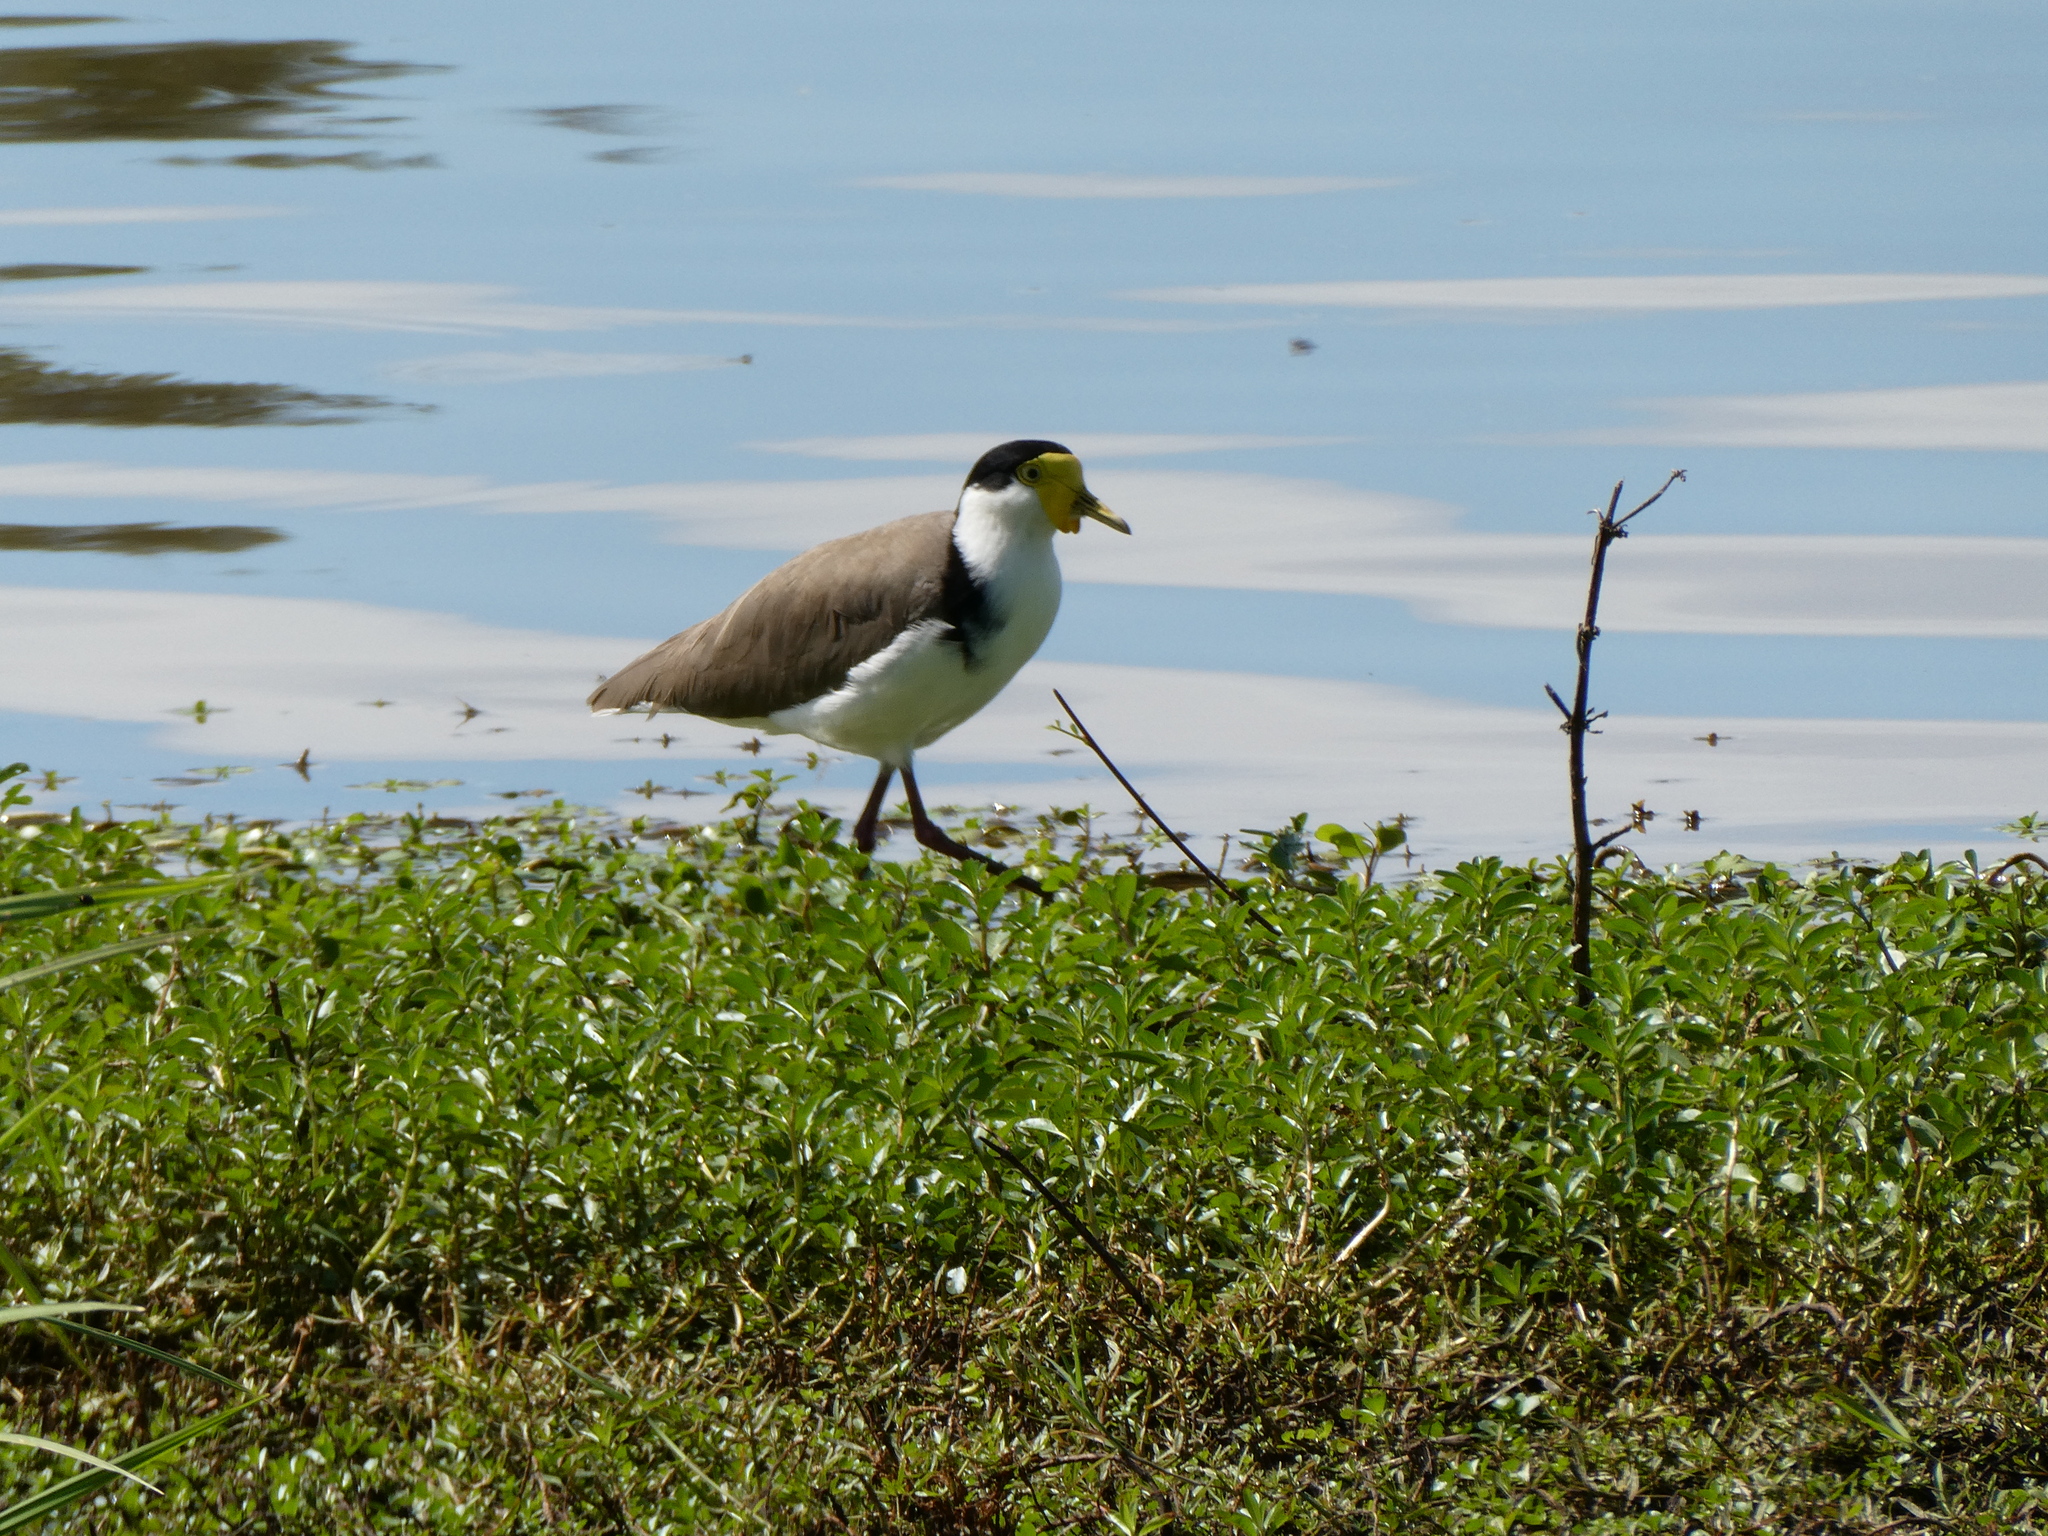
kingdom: Animalia
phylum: Chordata
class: Aves
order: Charadriiformes
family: Charadriidae
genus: Vanellus
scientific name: Vanellus miles
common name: Masked lapwing
